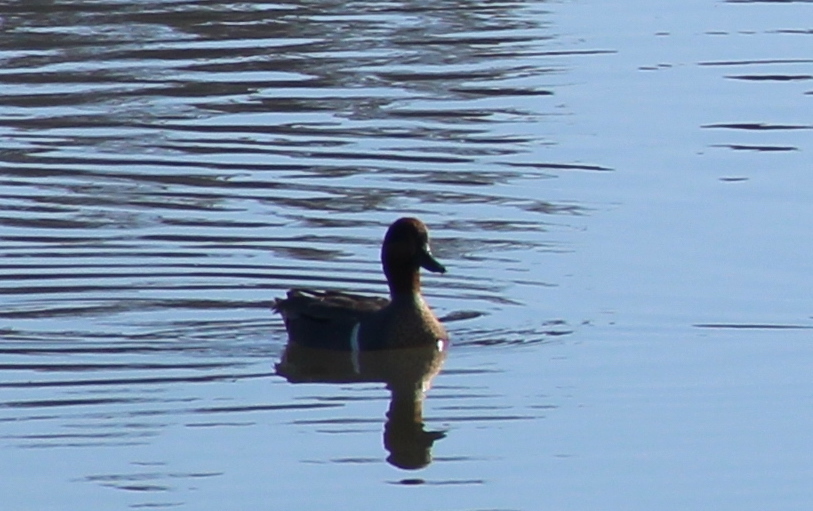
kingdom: Animalia
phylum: Chordata
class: Aves
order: Anseriformes
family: Anatidae
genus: Anas
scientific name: Anas crecca
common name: Eurasian teal
